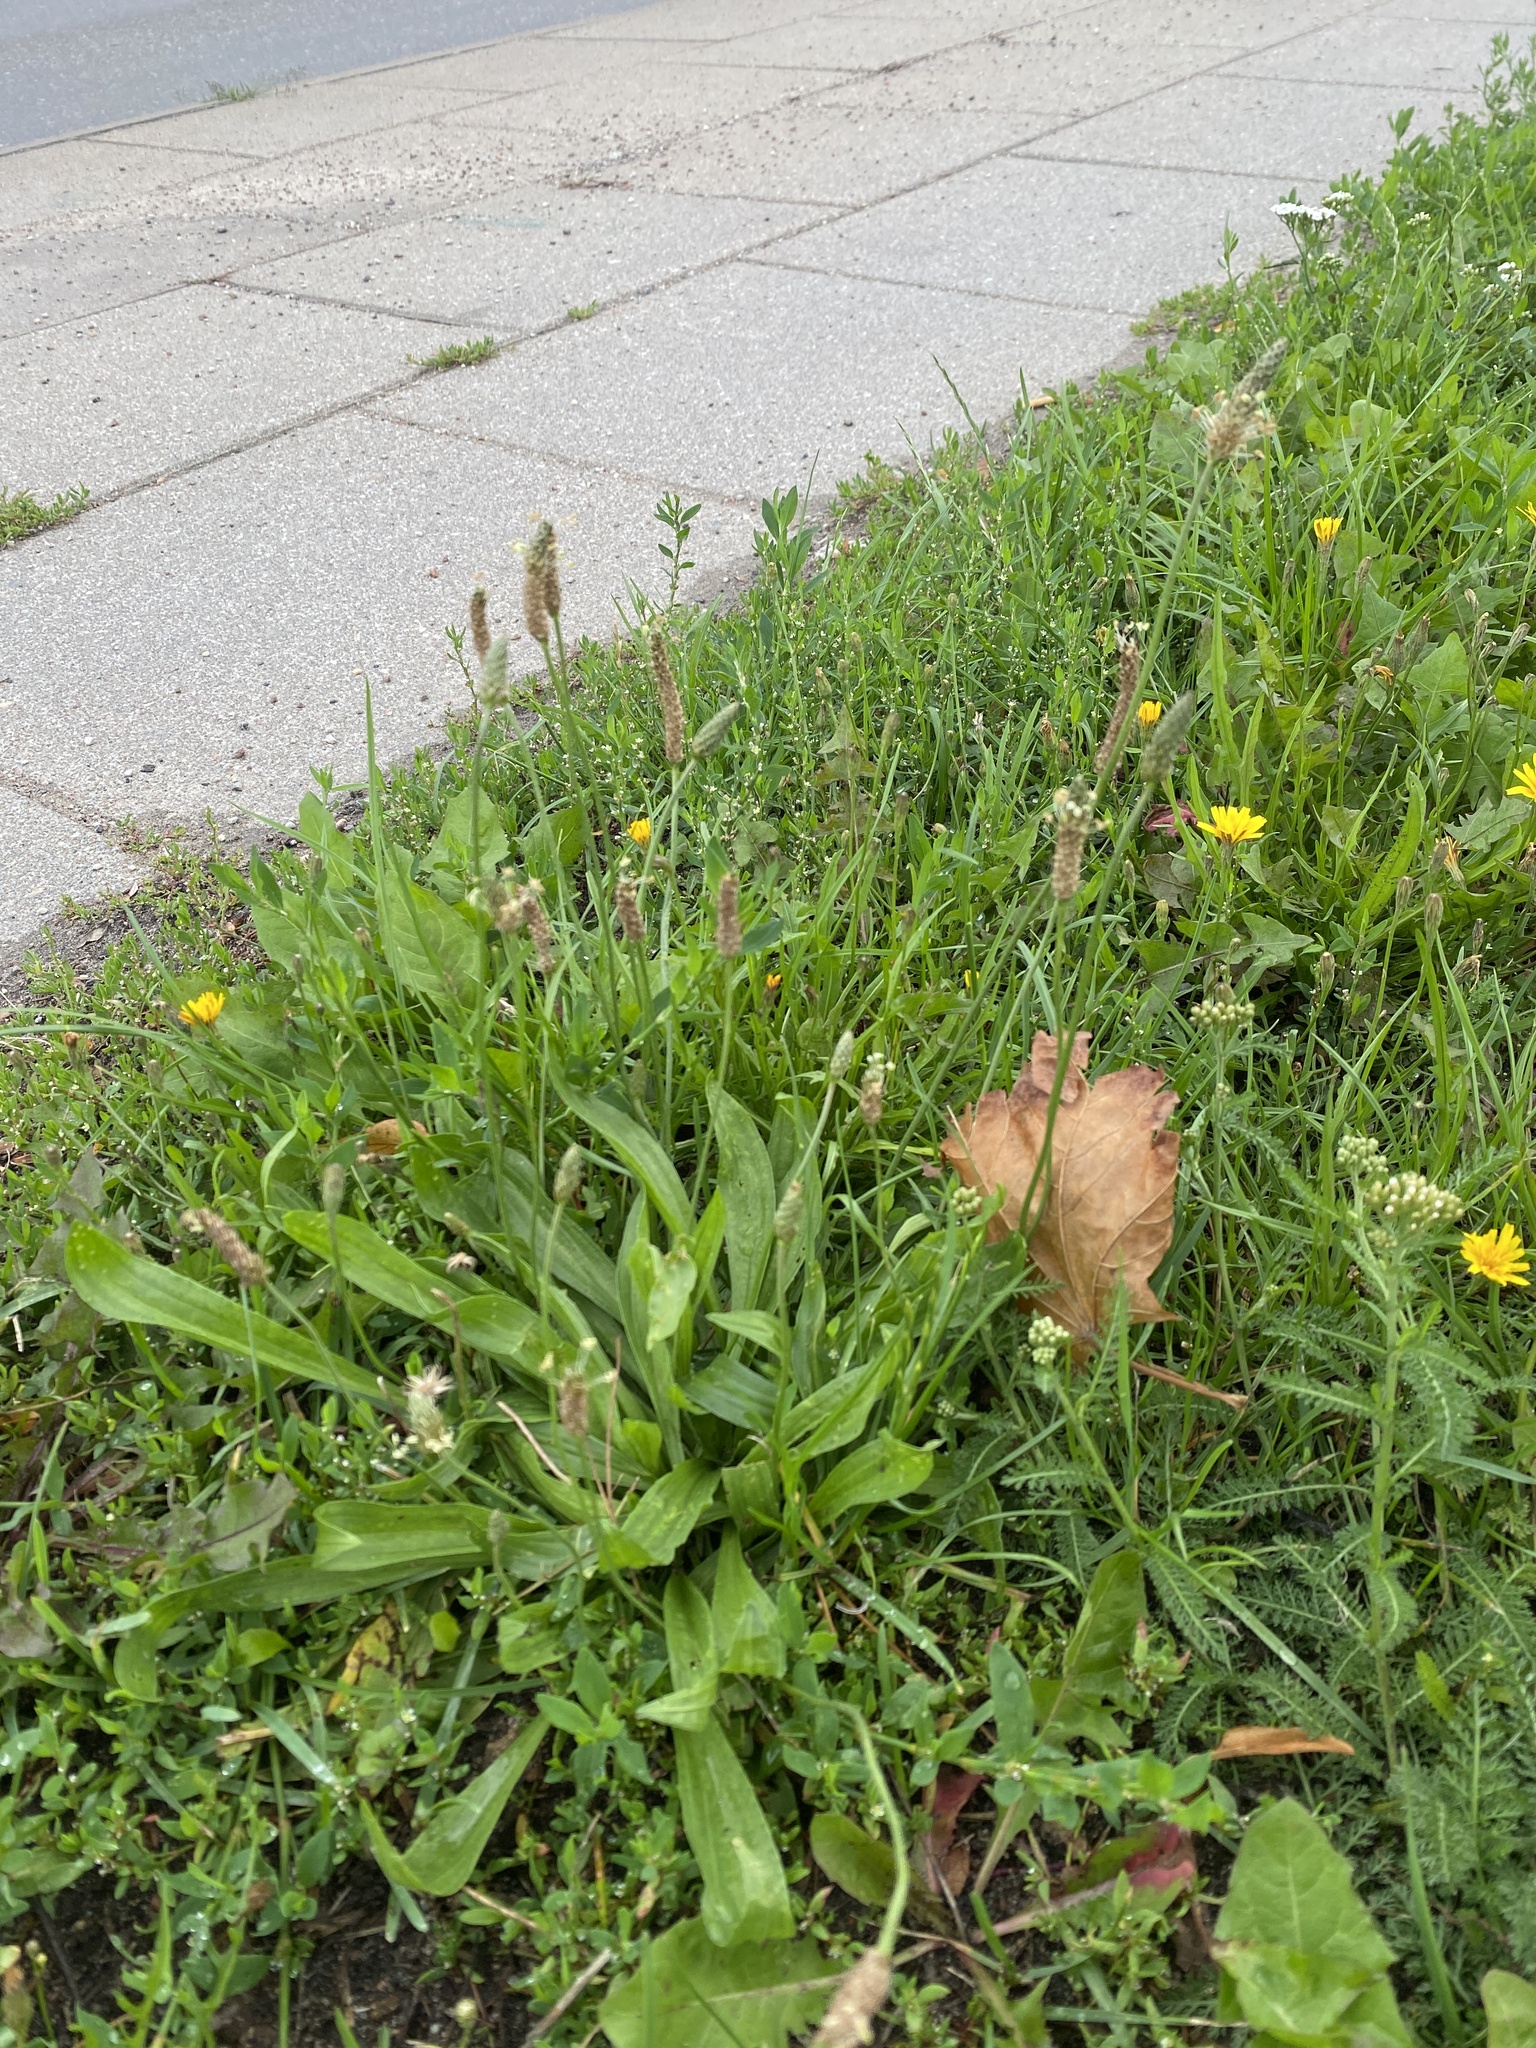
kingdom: Plantae
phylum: Tracheophyta
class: Magnoliopsida
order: Lamiales
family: Plantaginaceae
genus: Plantago
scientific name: Plantago lanceolata
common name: Ribwort plantain
